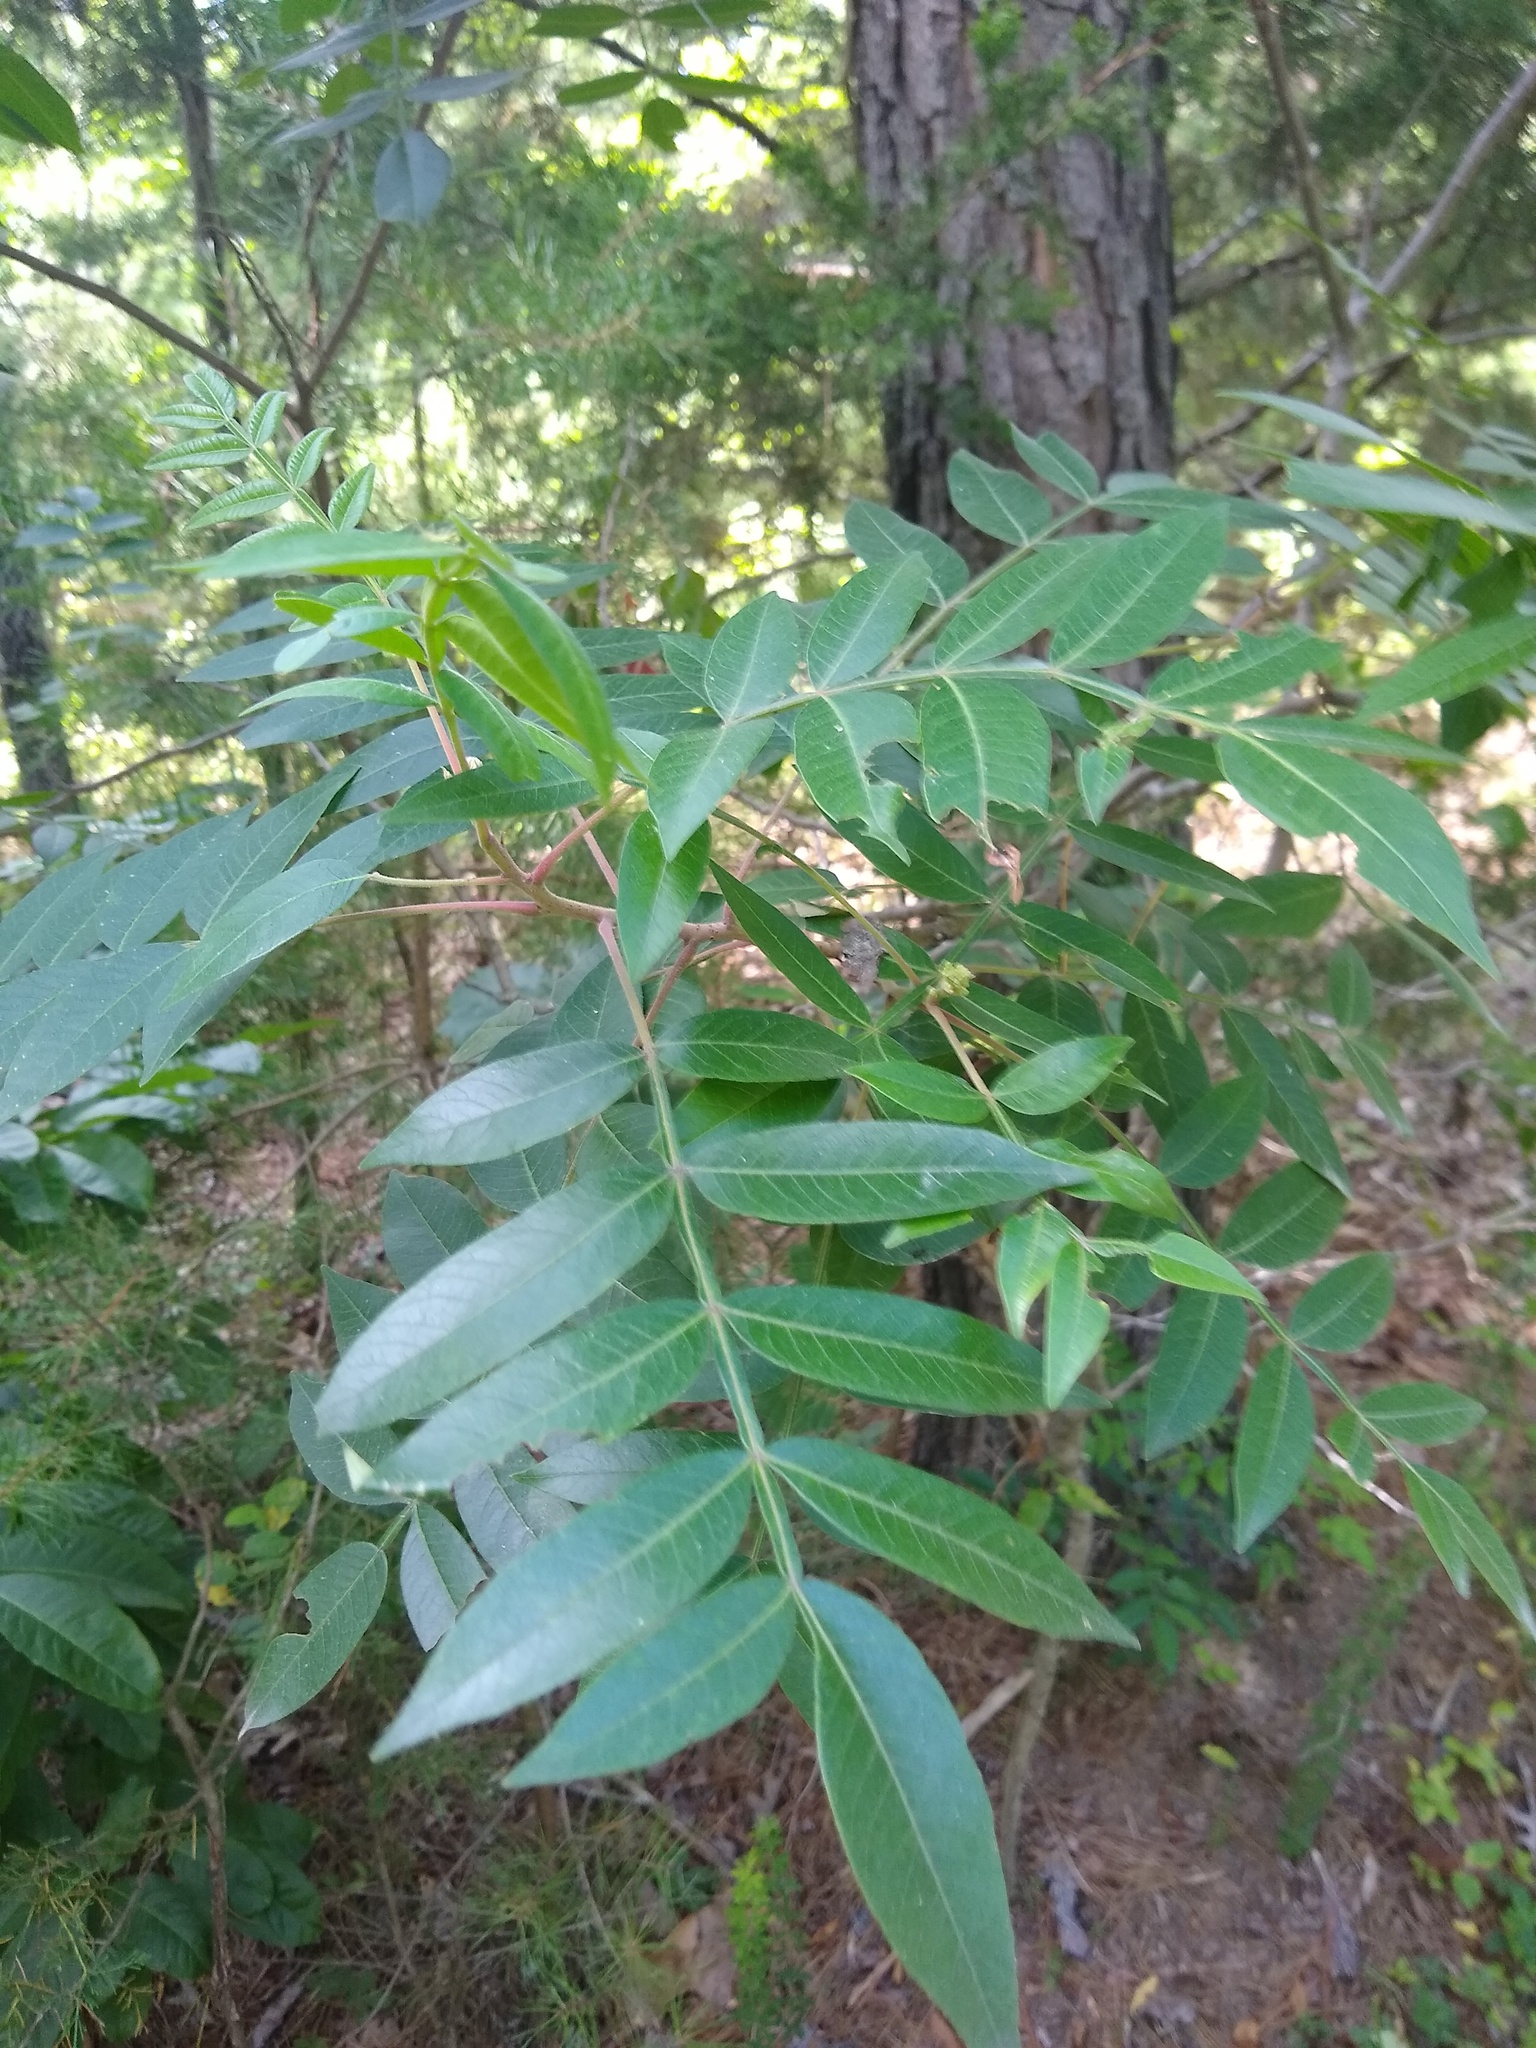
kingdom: Plantae
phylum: Tracheophyta
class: Magnoliopsida
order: Sapindales
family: Anacardiaceae
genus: Rhus
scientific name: Rhus copallina
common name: Shining sumac
